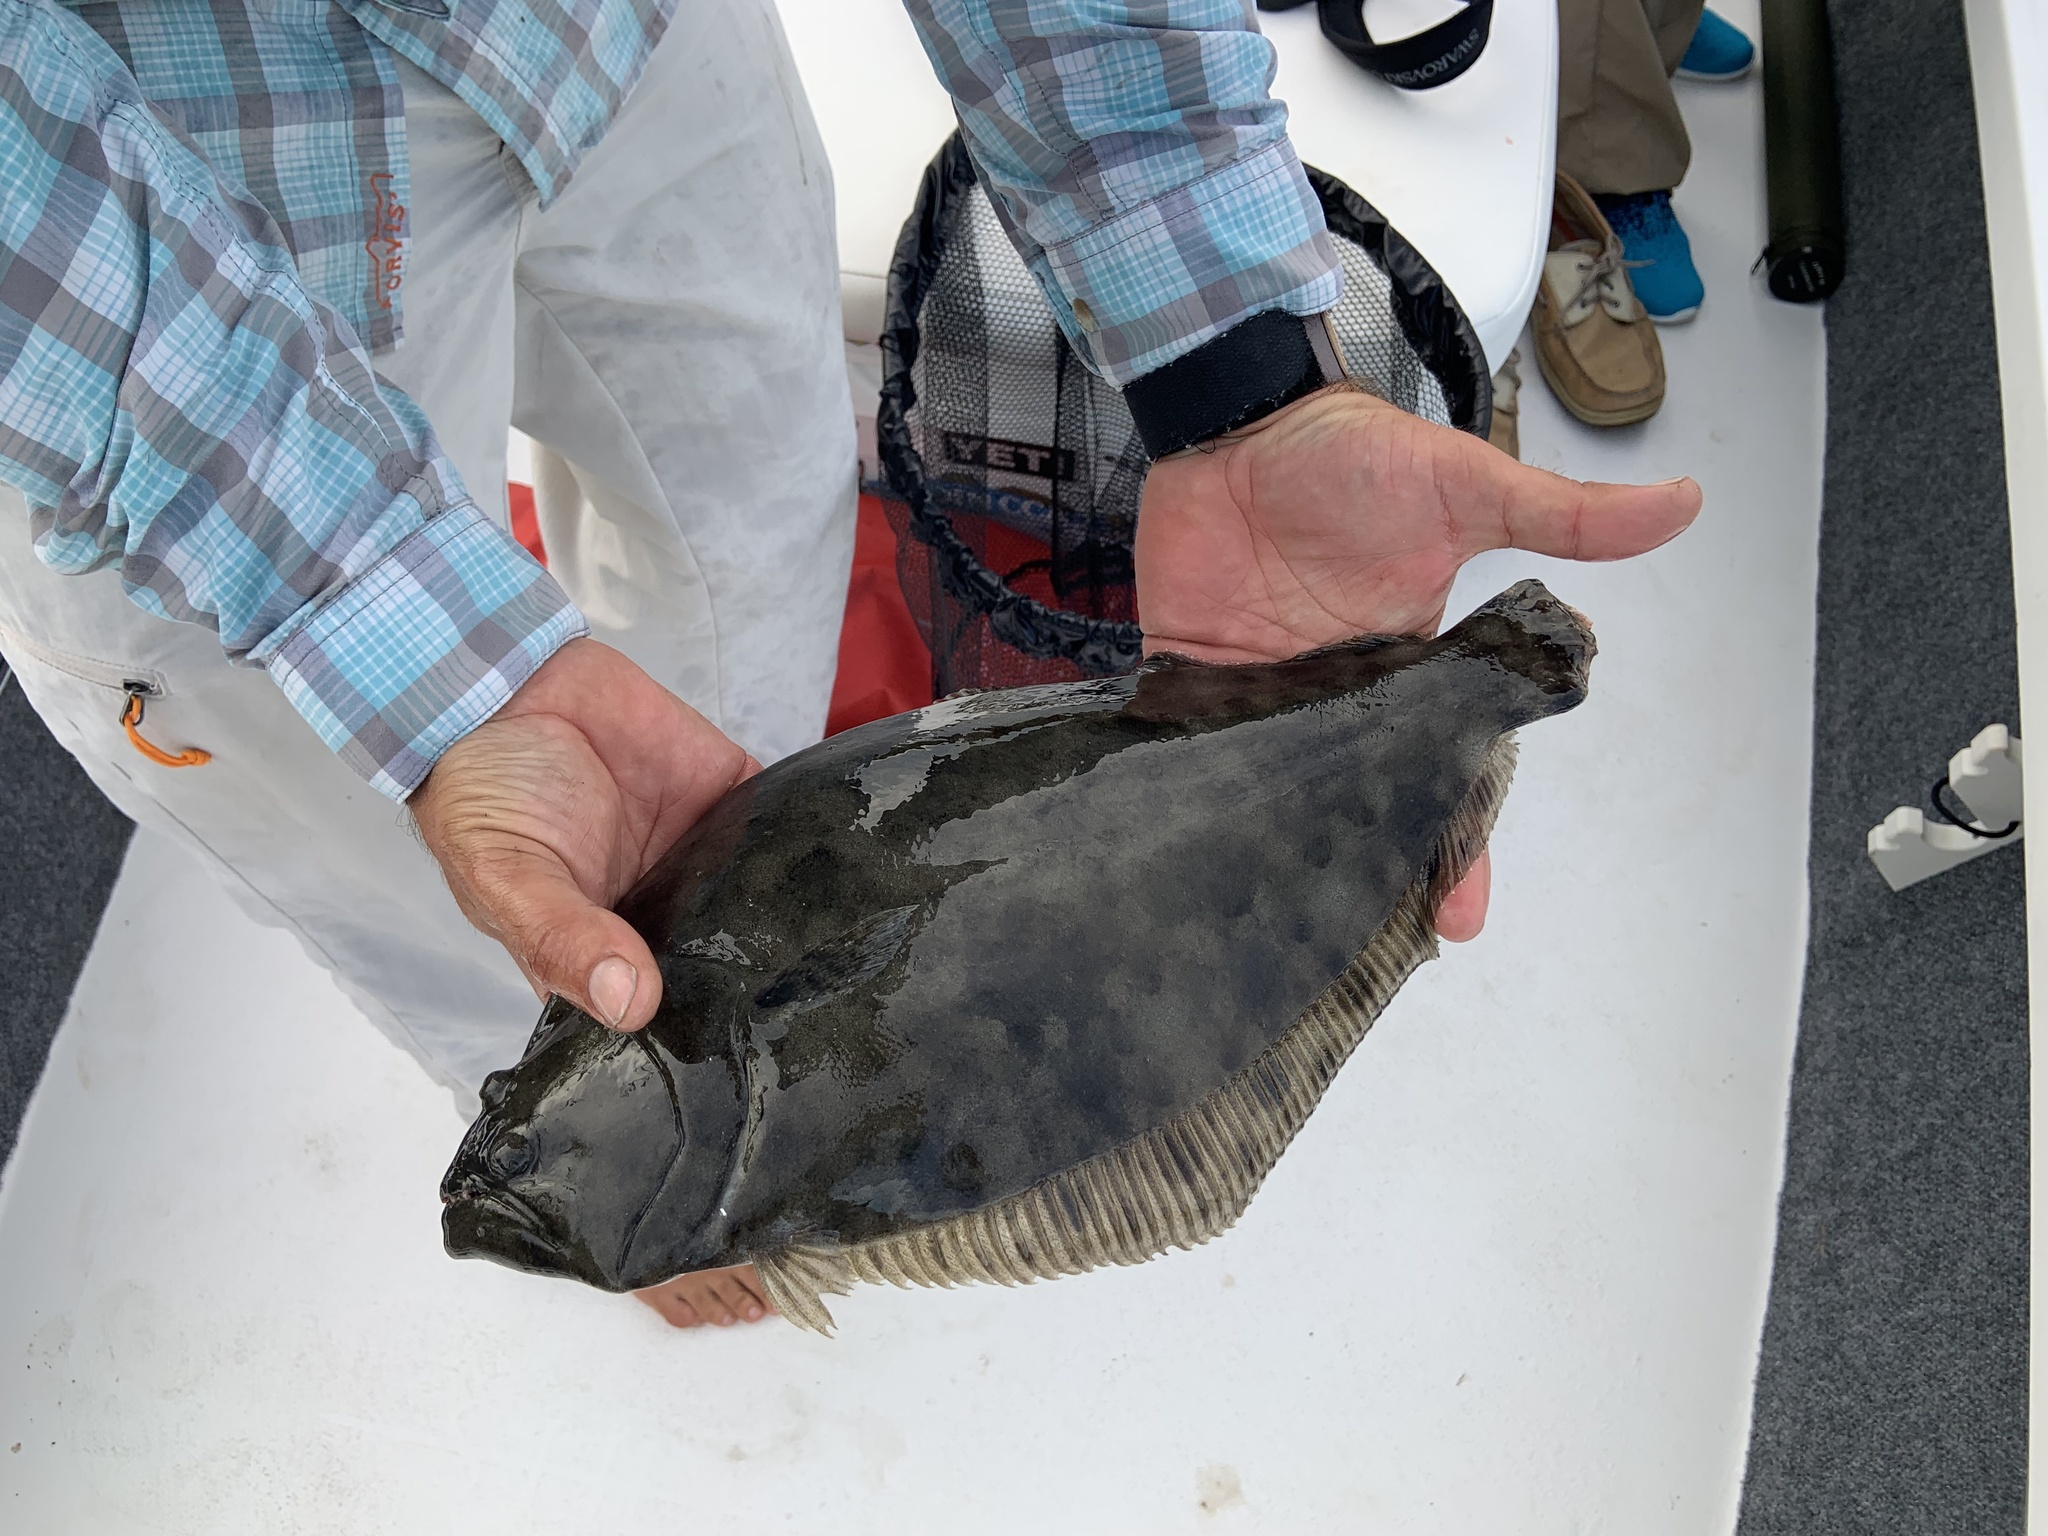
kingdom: Animalia
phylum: Chordata
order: Pleuronectiformes
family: Paralichthyidae
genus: Paralichthys
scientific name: Paralichthys lethostigma
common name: Southern flounder
